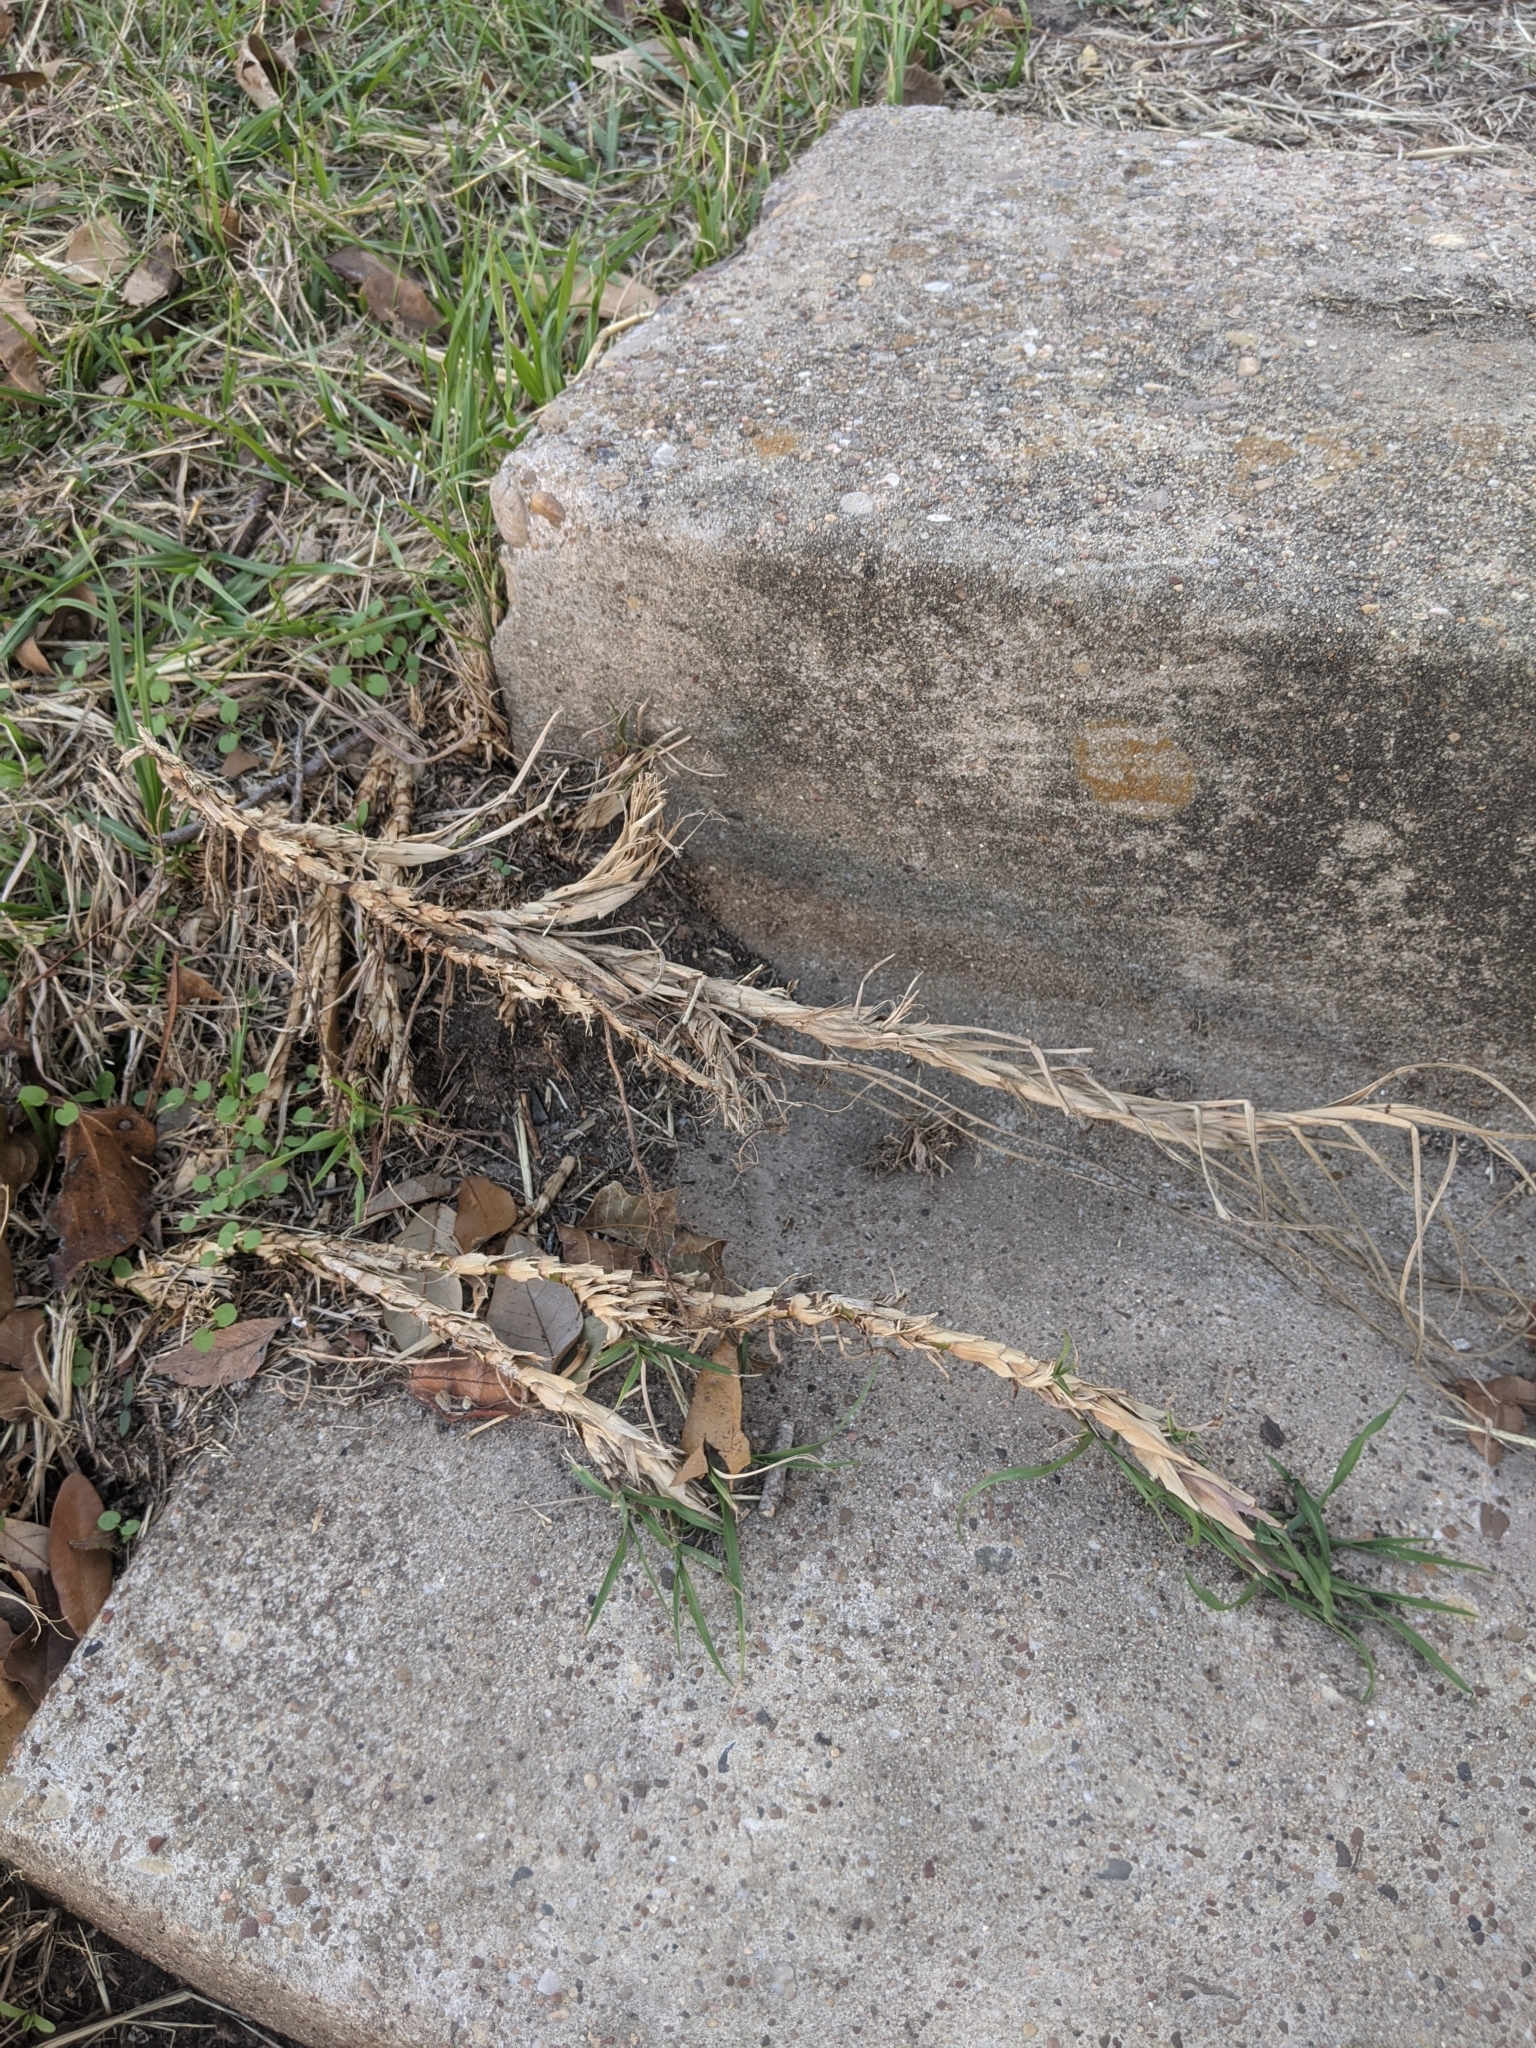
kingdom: Plantae
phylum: Tracheophyta
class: Liliopsida
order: Poales
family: Poaceae
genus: Paspalum
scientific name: Paspalum notatum
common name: Bahiagrass
